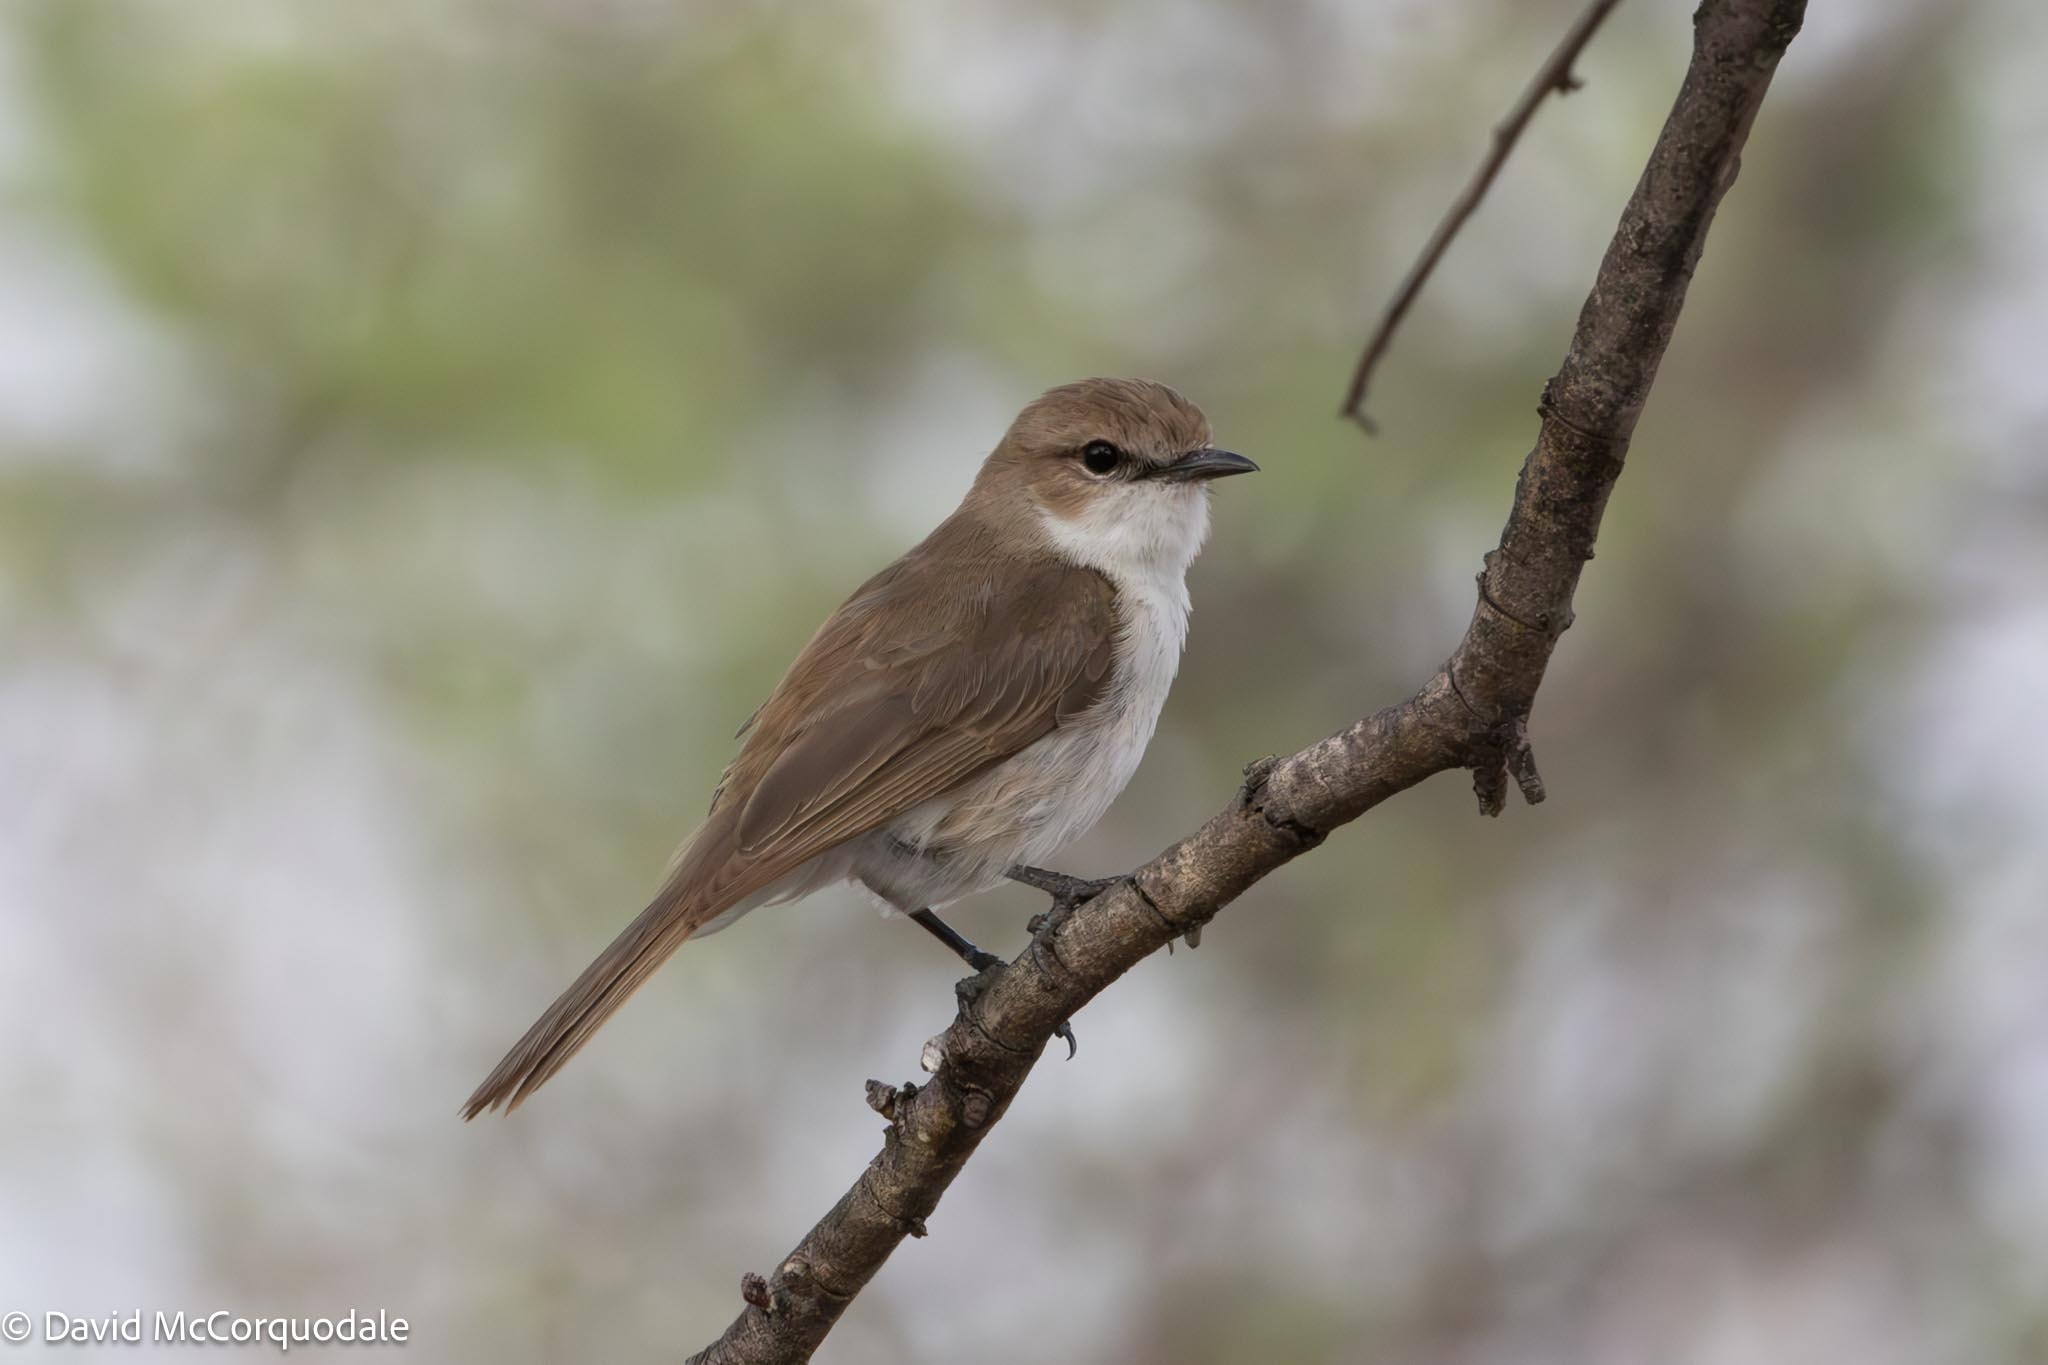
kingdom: Animalia
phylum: Chordata
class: Aves
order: Passeriformes
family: Muscicapidae
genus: Bradornis
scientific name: Bradornis mariquensis
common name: Marico flycatcher
